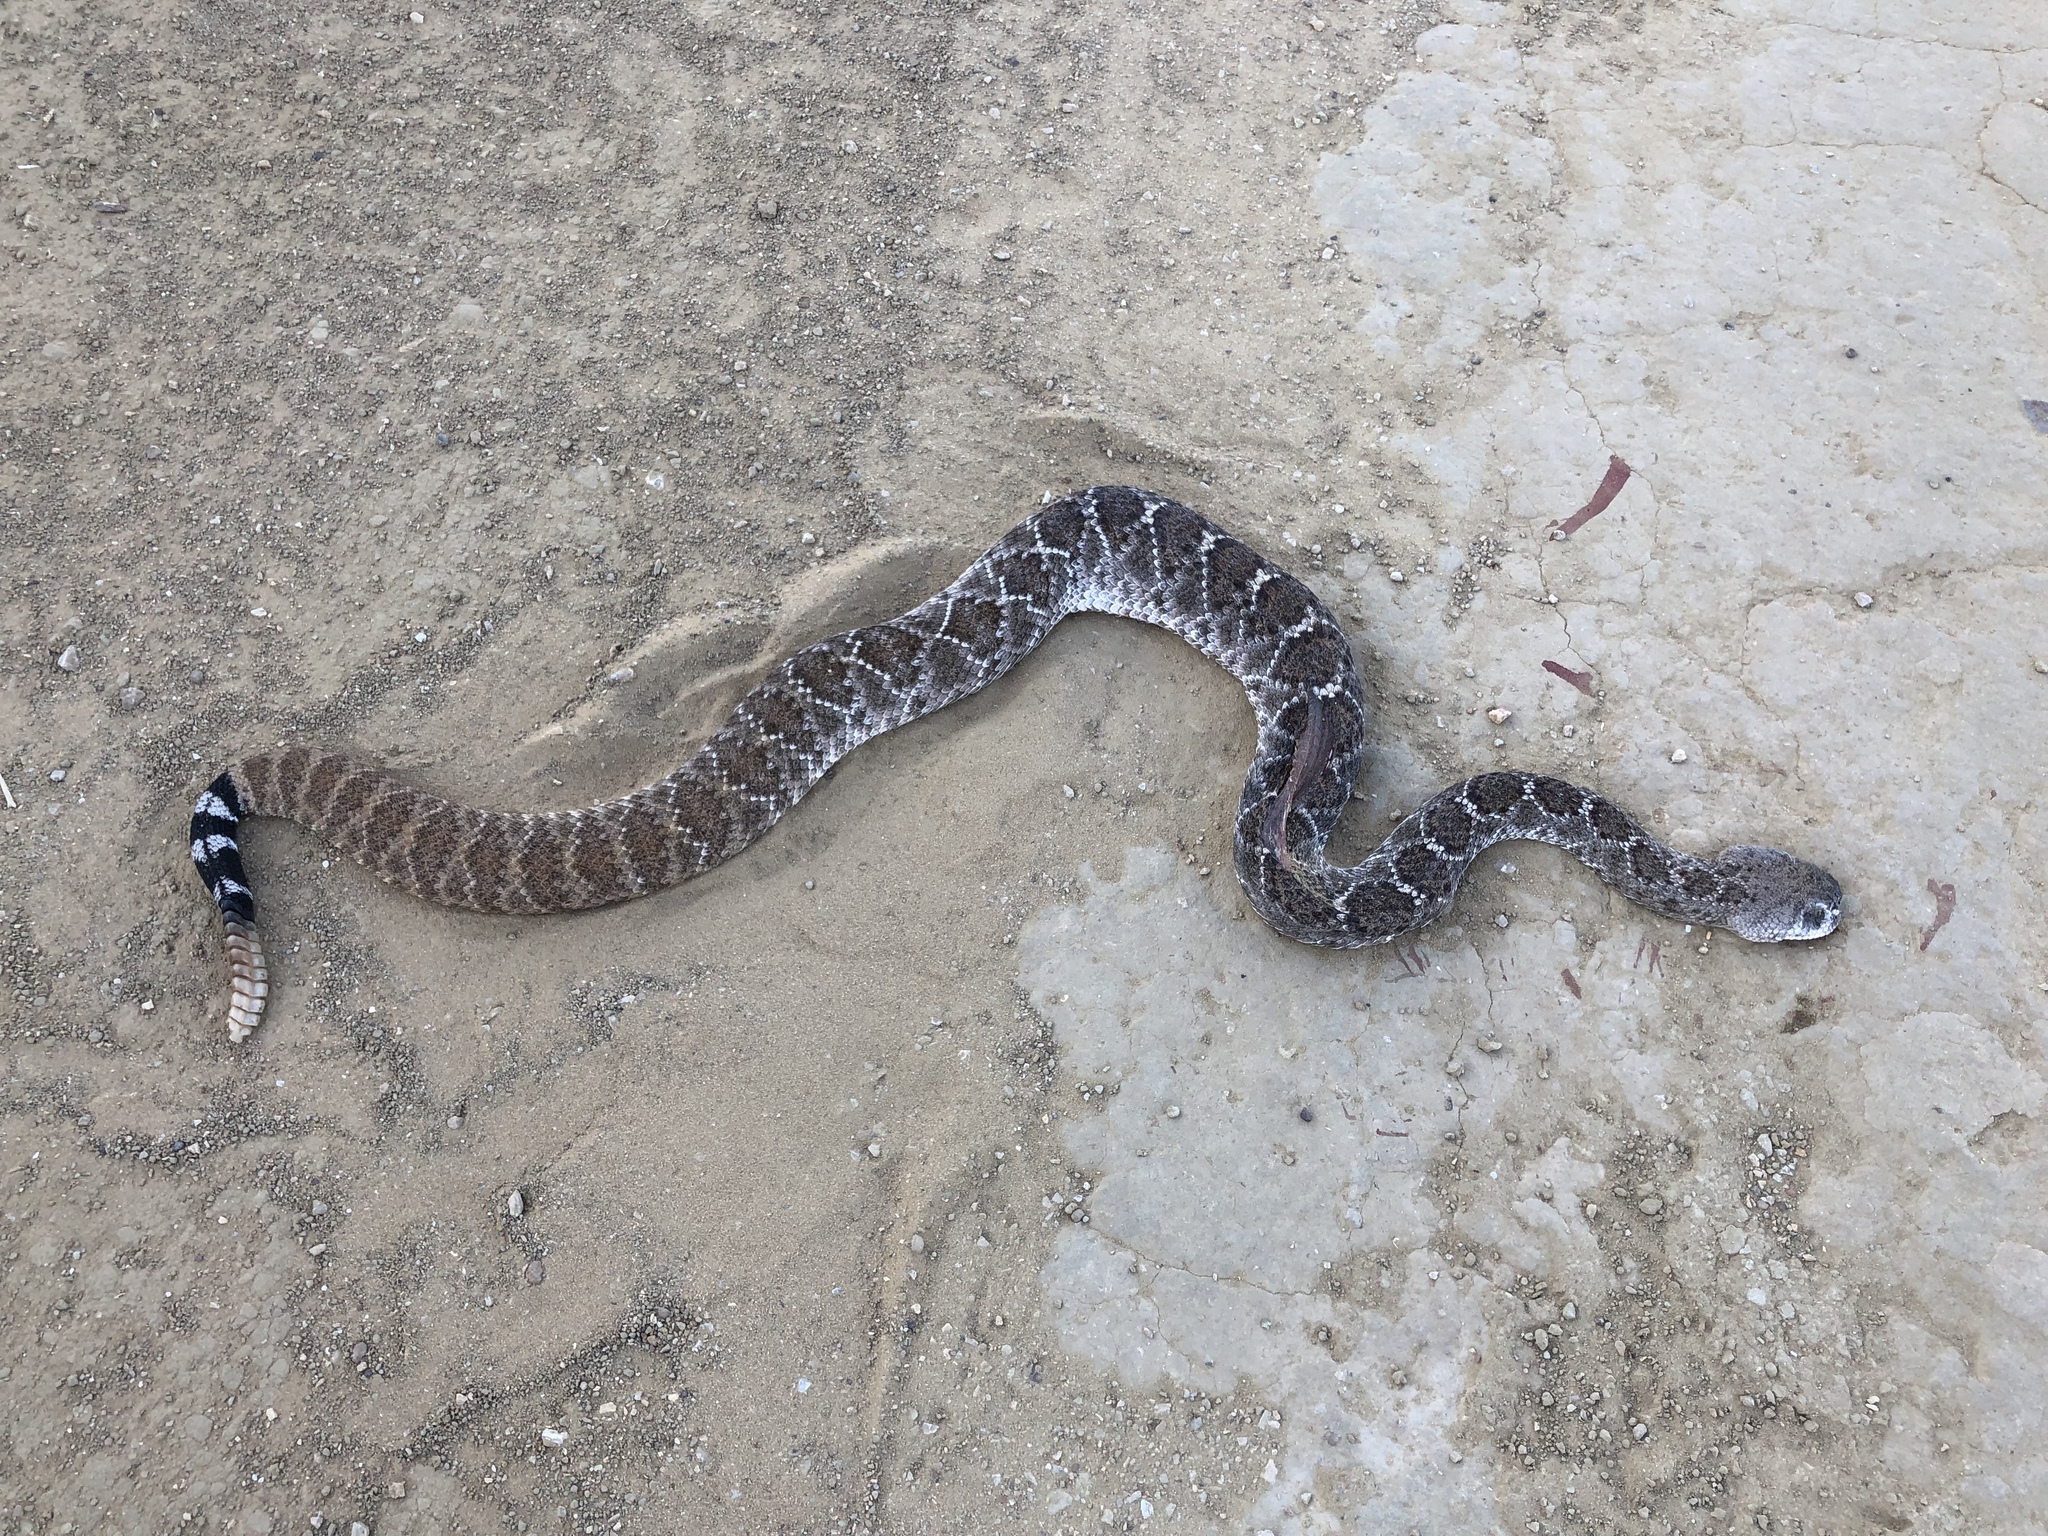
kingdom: Animalia
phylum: Chordata
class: Squamata
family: Viperidae
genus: Crotalus
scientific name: Crotalus atrox
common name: Western diamond-backed rattlesnake
